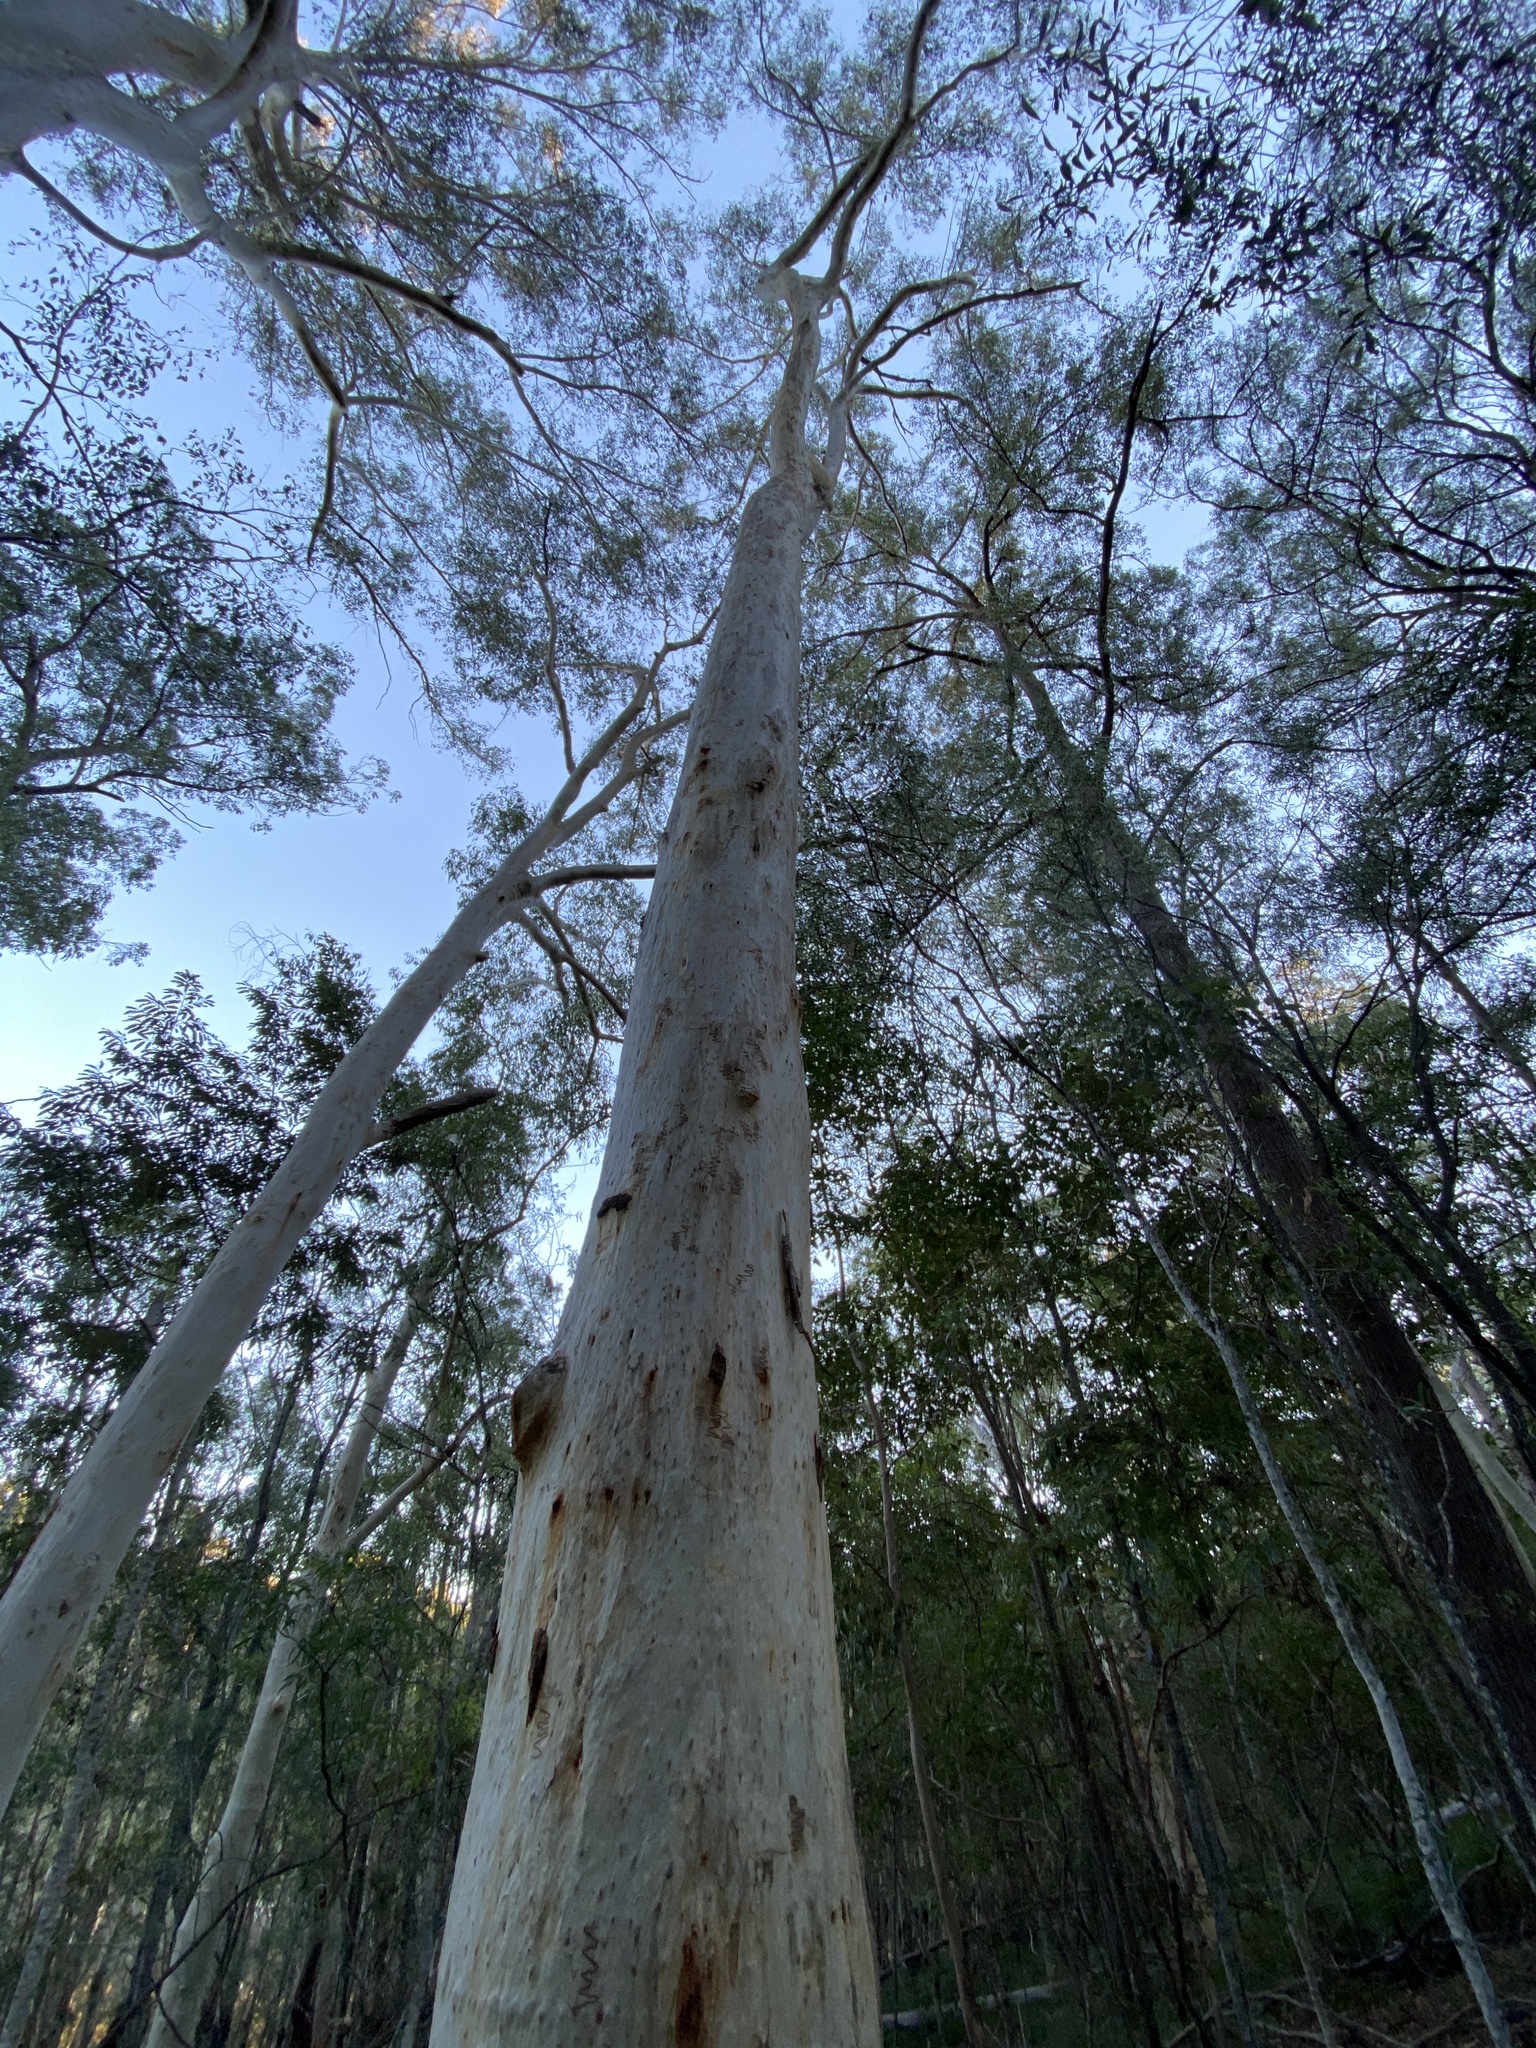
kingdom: Plantae
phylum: Tracheophyta
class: Magnoliopsida
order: Myrtales
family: Myrtaceae
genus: Eucalyptus
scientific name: Eucalyptus racemosa
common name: Scribbly gum
